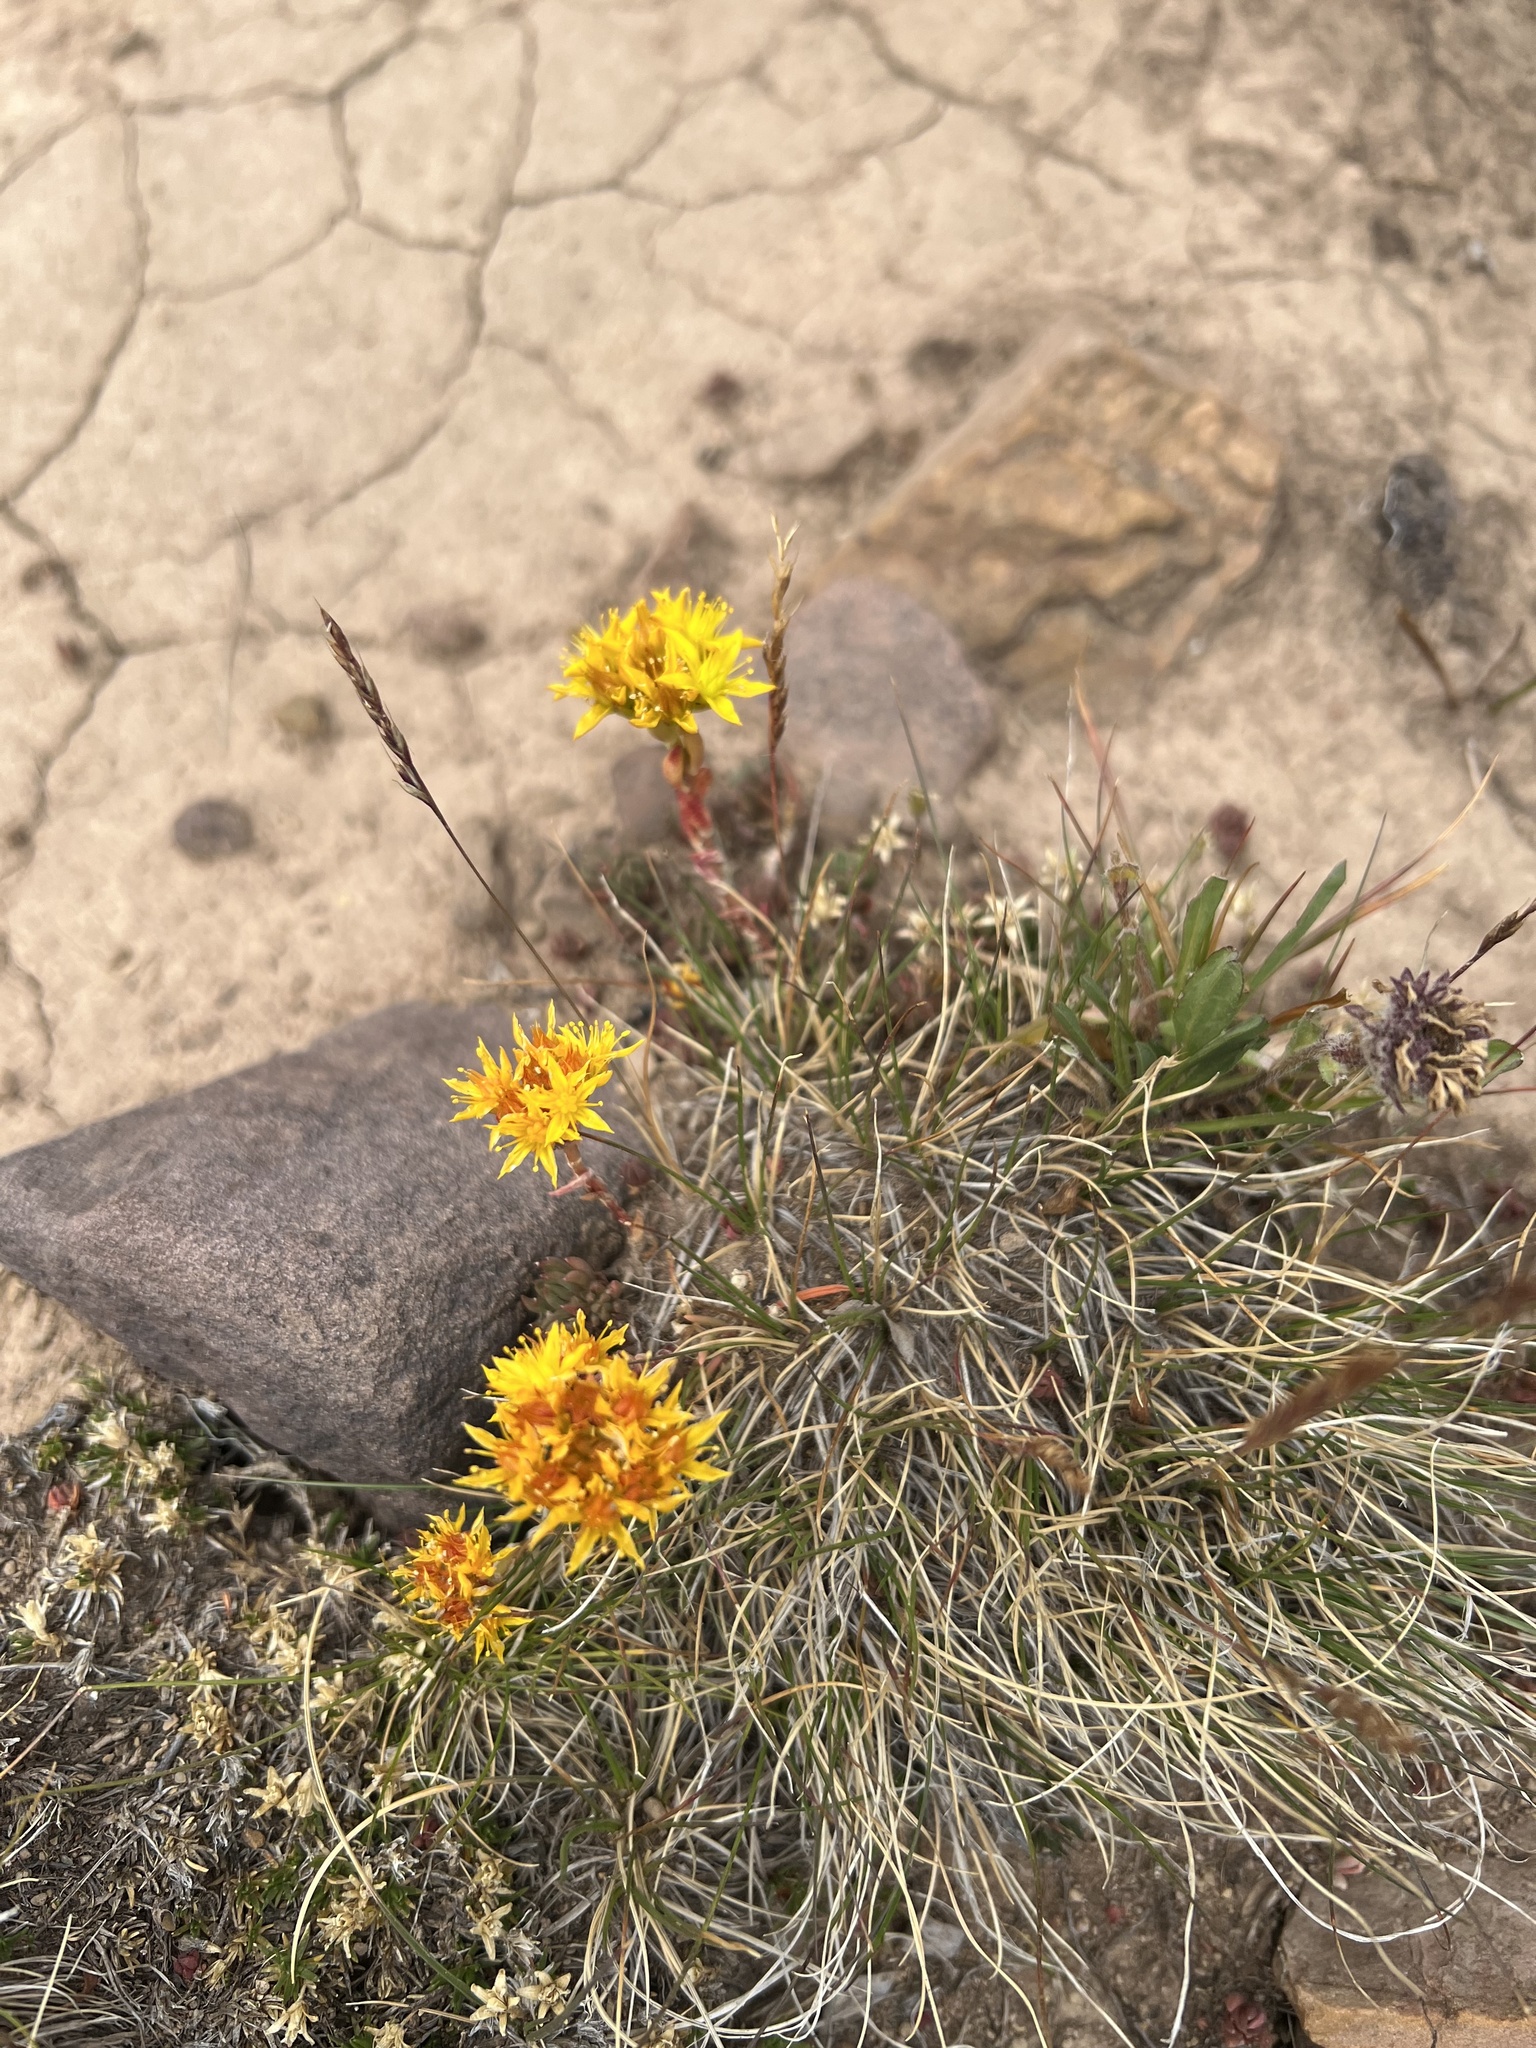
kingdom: Plantae
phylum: Tracheophyta
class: Magnoliopsida
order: Saxifragales
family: Crassulaceae
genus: Sedum
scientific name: Sedum lanceolatum
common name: Common stonecrop
